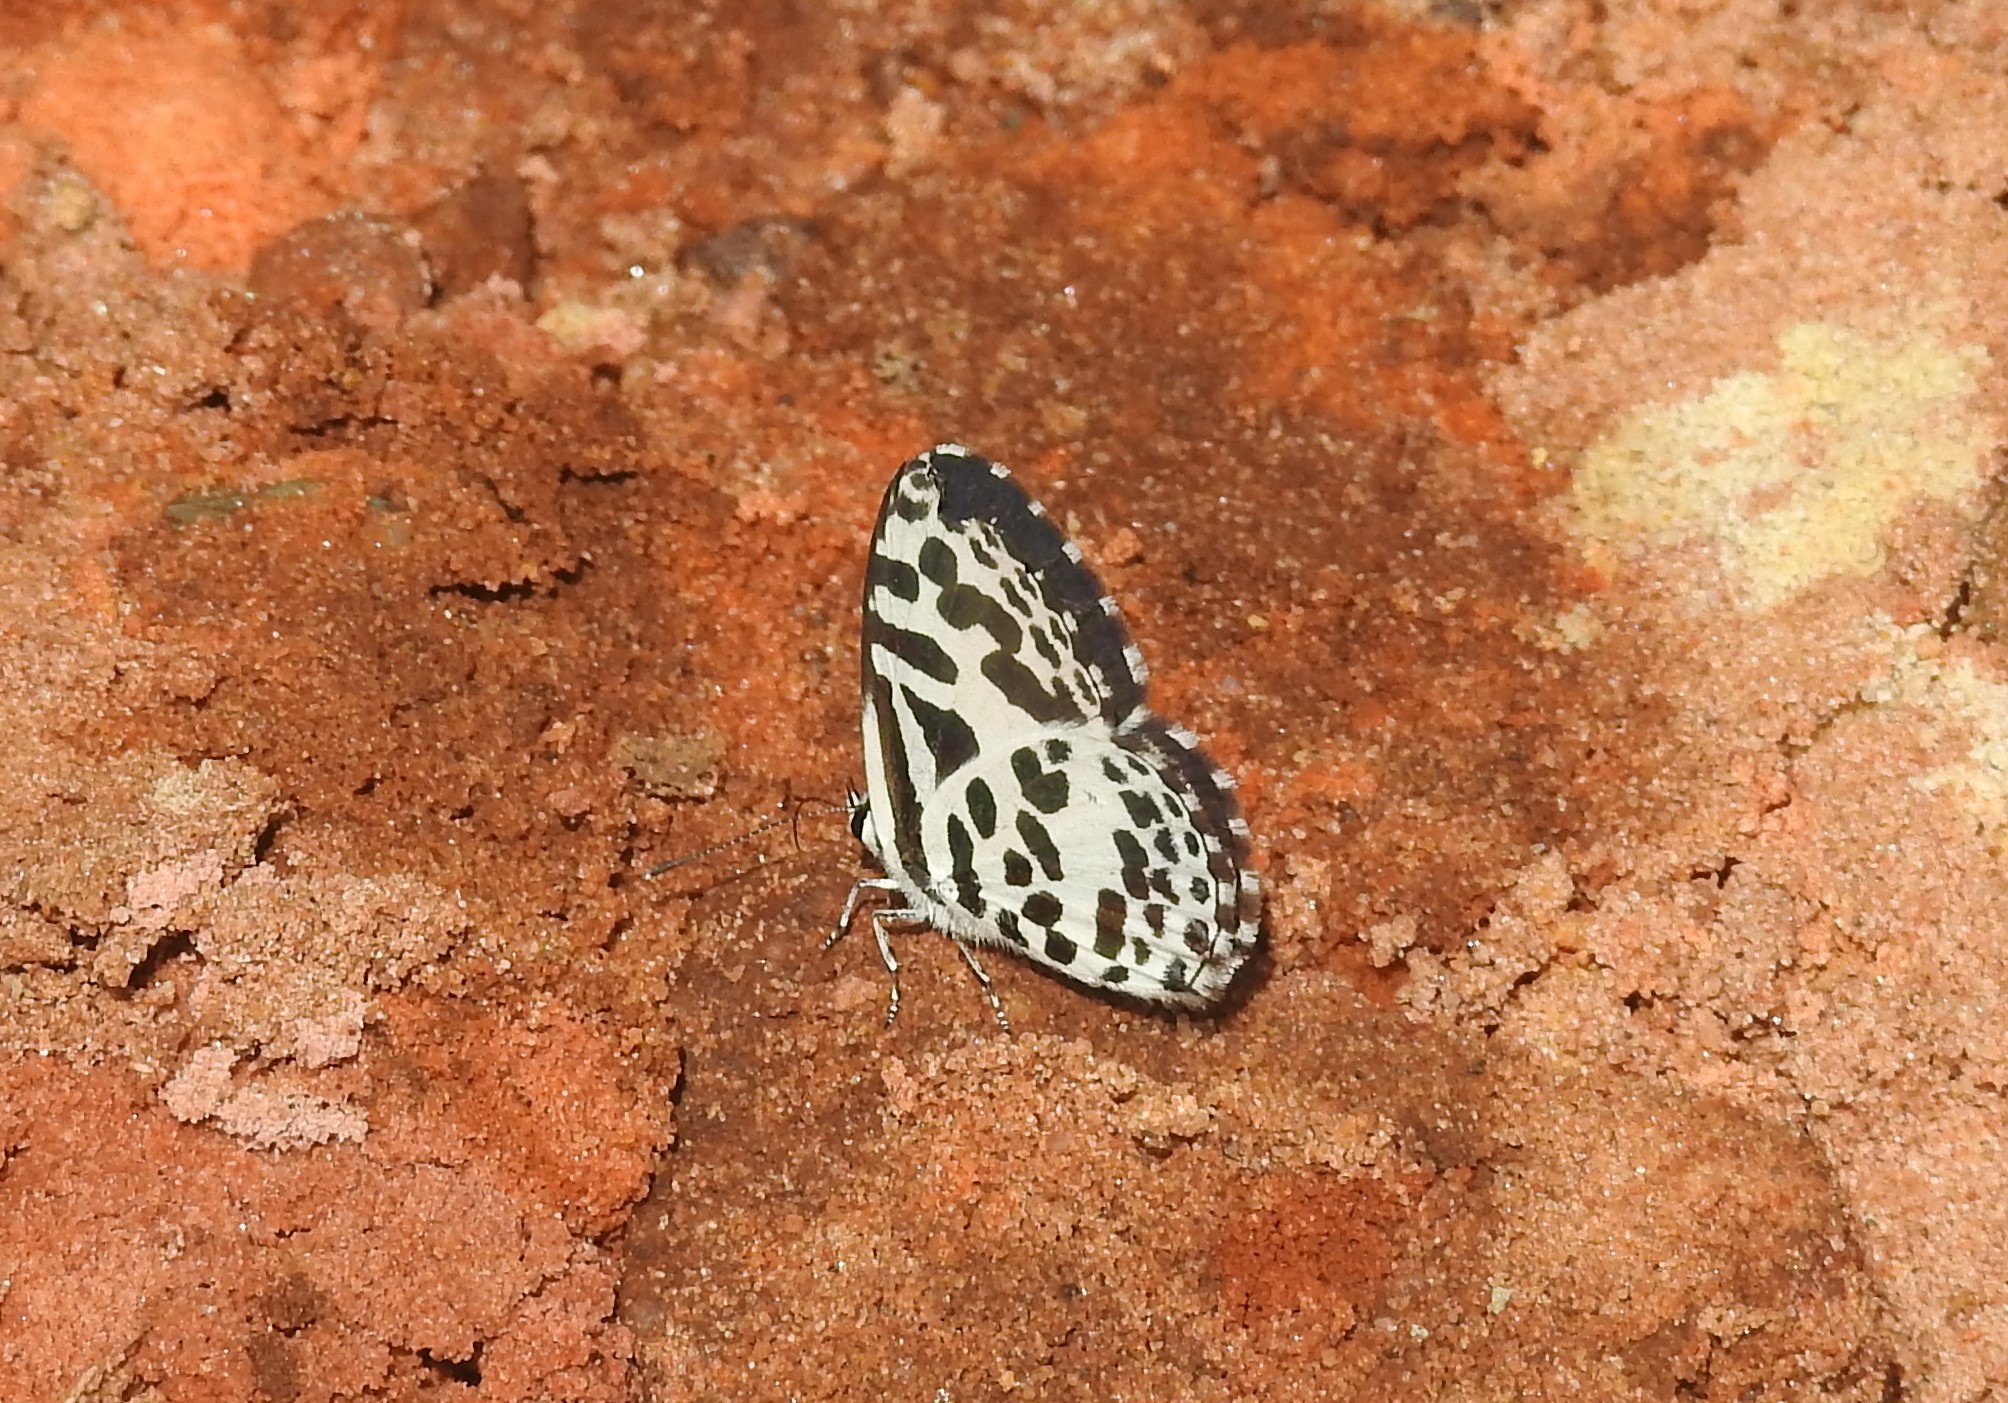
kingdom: Animalia
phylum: Arthropoda
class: Insecta
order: Lepidoptera
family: Lycaenidae
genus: Castalius
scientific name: Castalius rosimon
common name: Common pierrot
